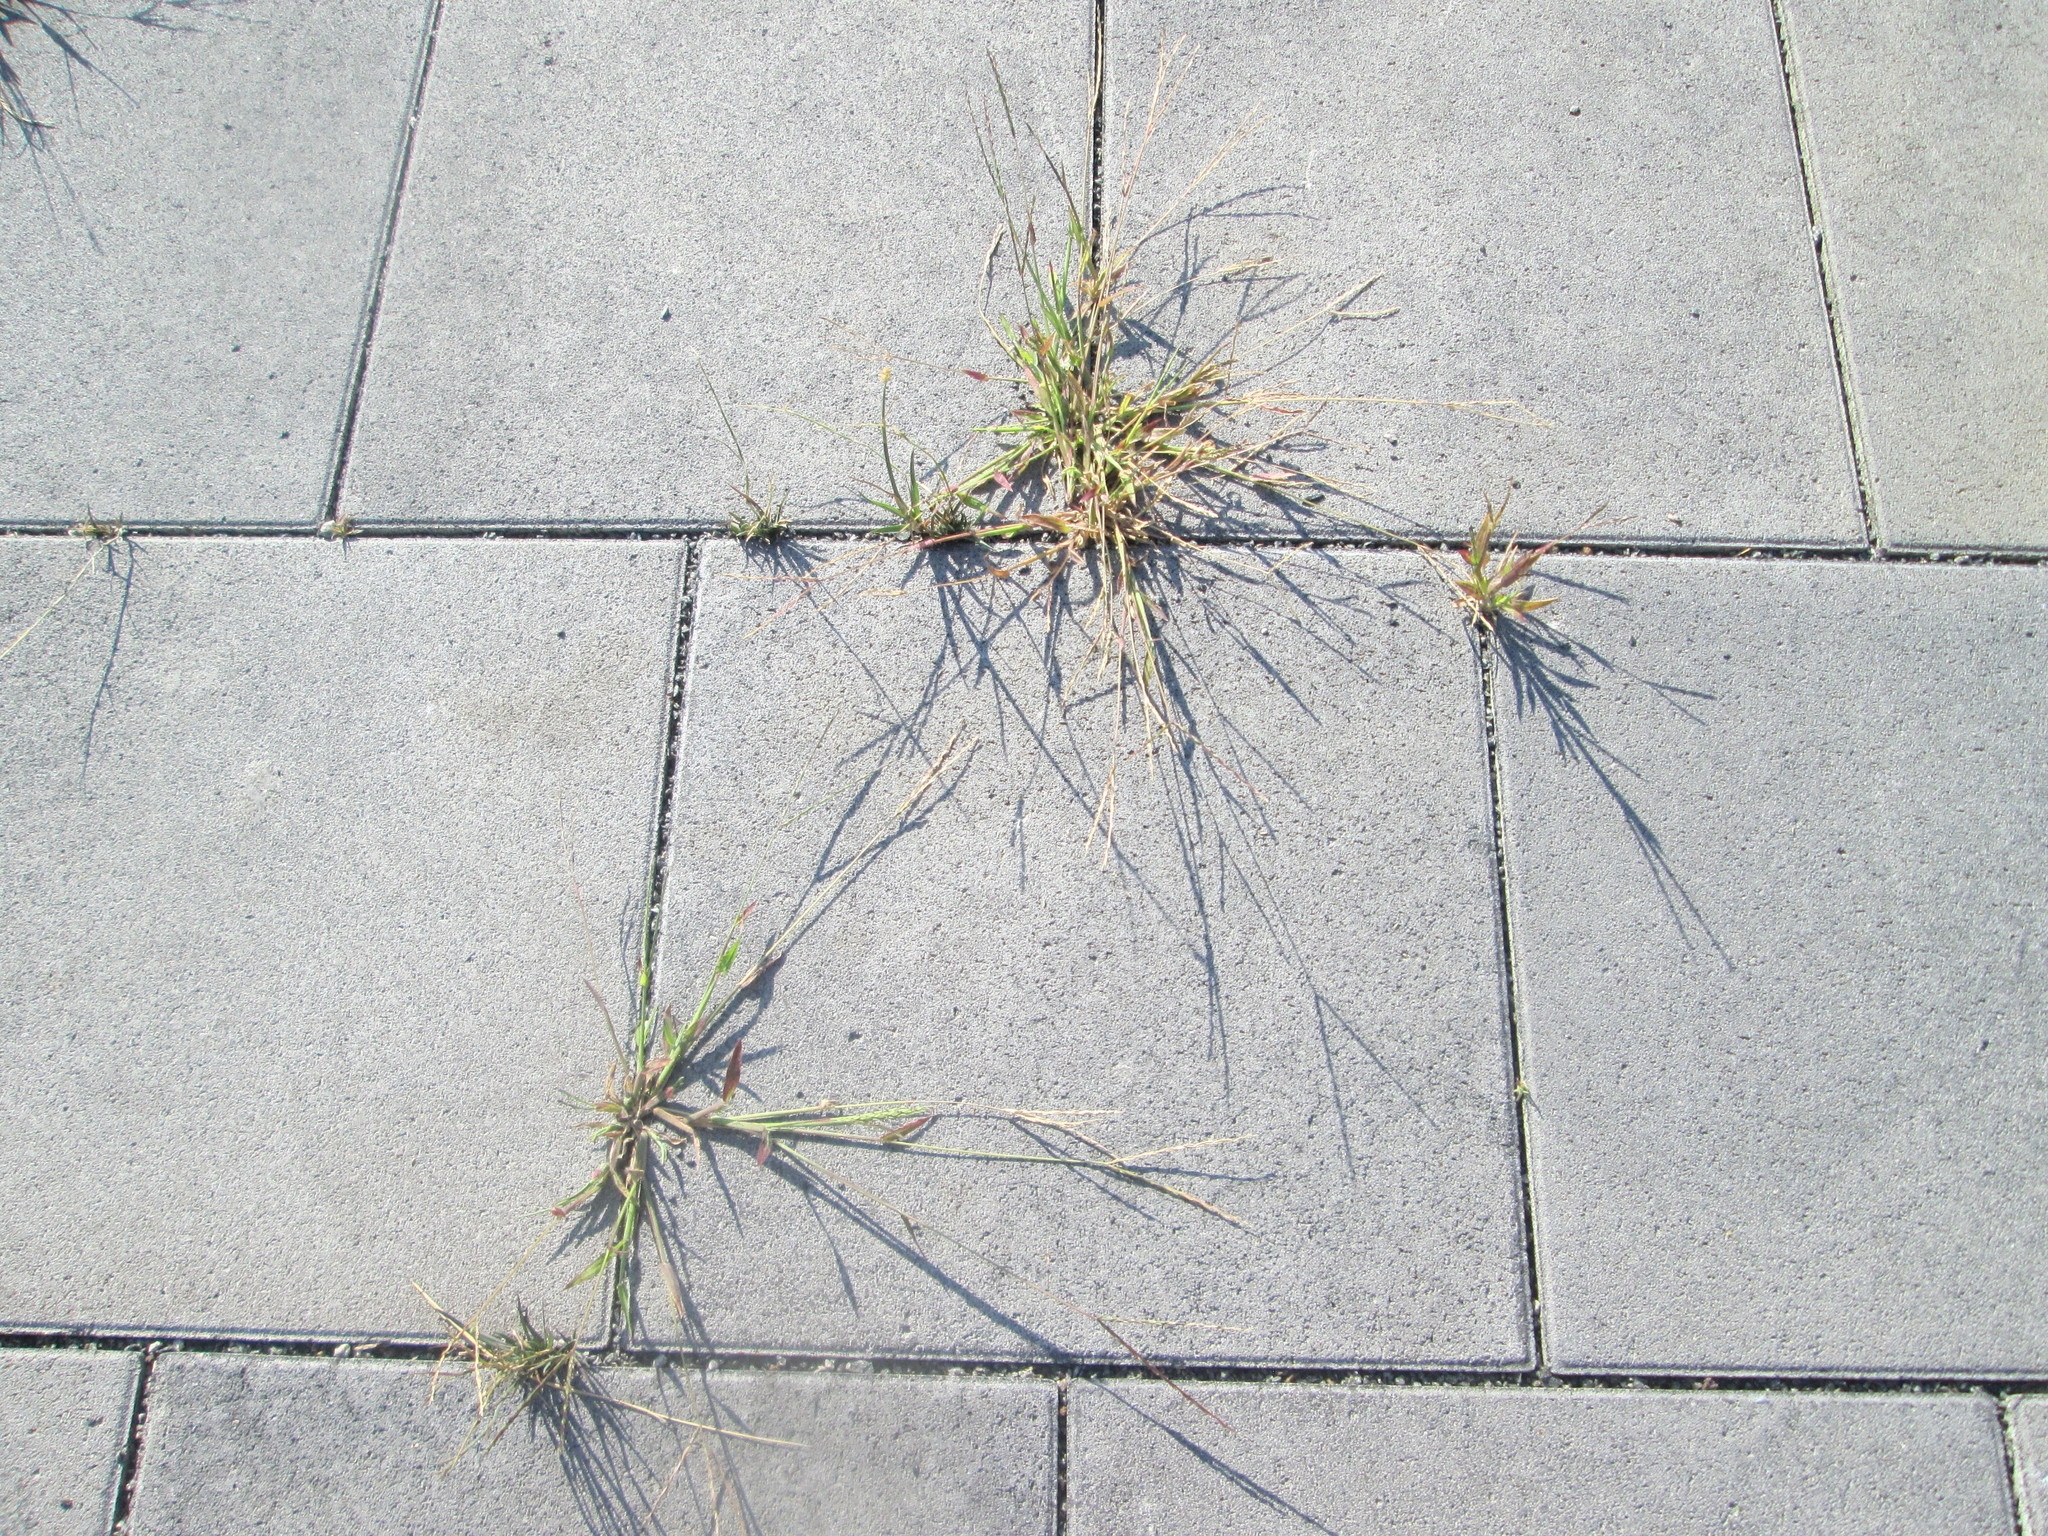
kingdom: Plantae
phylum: Tracheophyta
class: Liliopsida
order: Poales
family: Poaceae
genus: Digitaria
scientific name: Digitaria sanguinalis
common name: Hairy crabgrass
